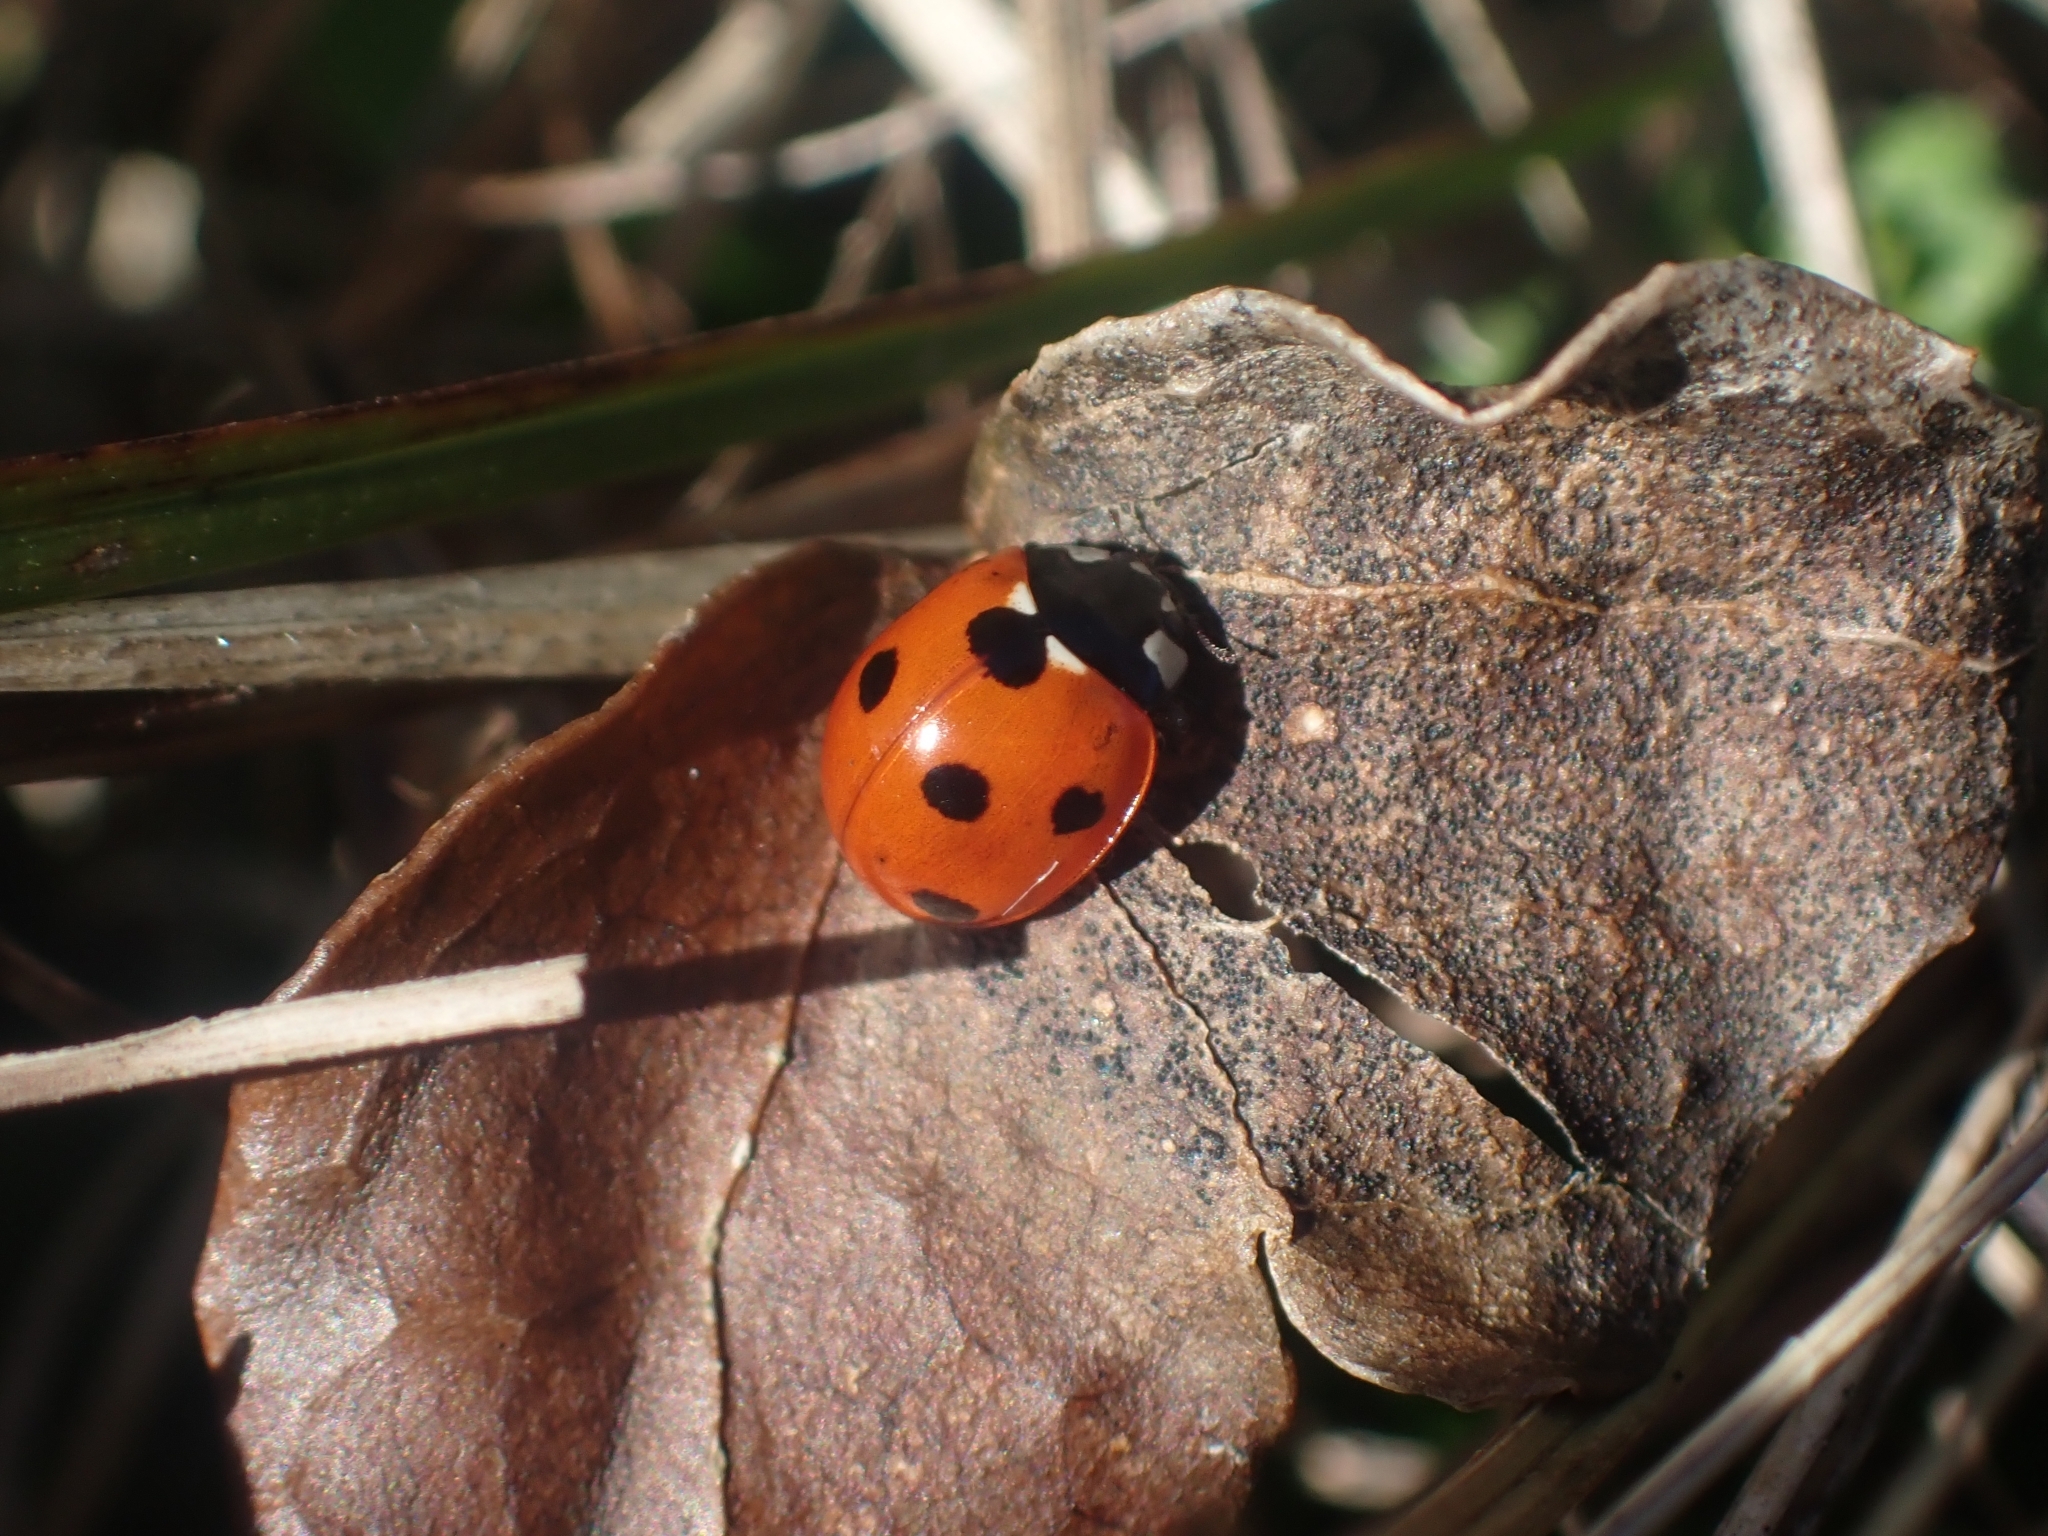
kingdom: Animalia
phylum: Arthropoda
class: Insecta
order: Coleoptera
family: Coccinellidae
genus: Coccinella
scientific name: Coccinella septempunctata
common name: Sevenspotted lady beetle
